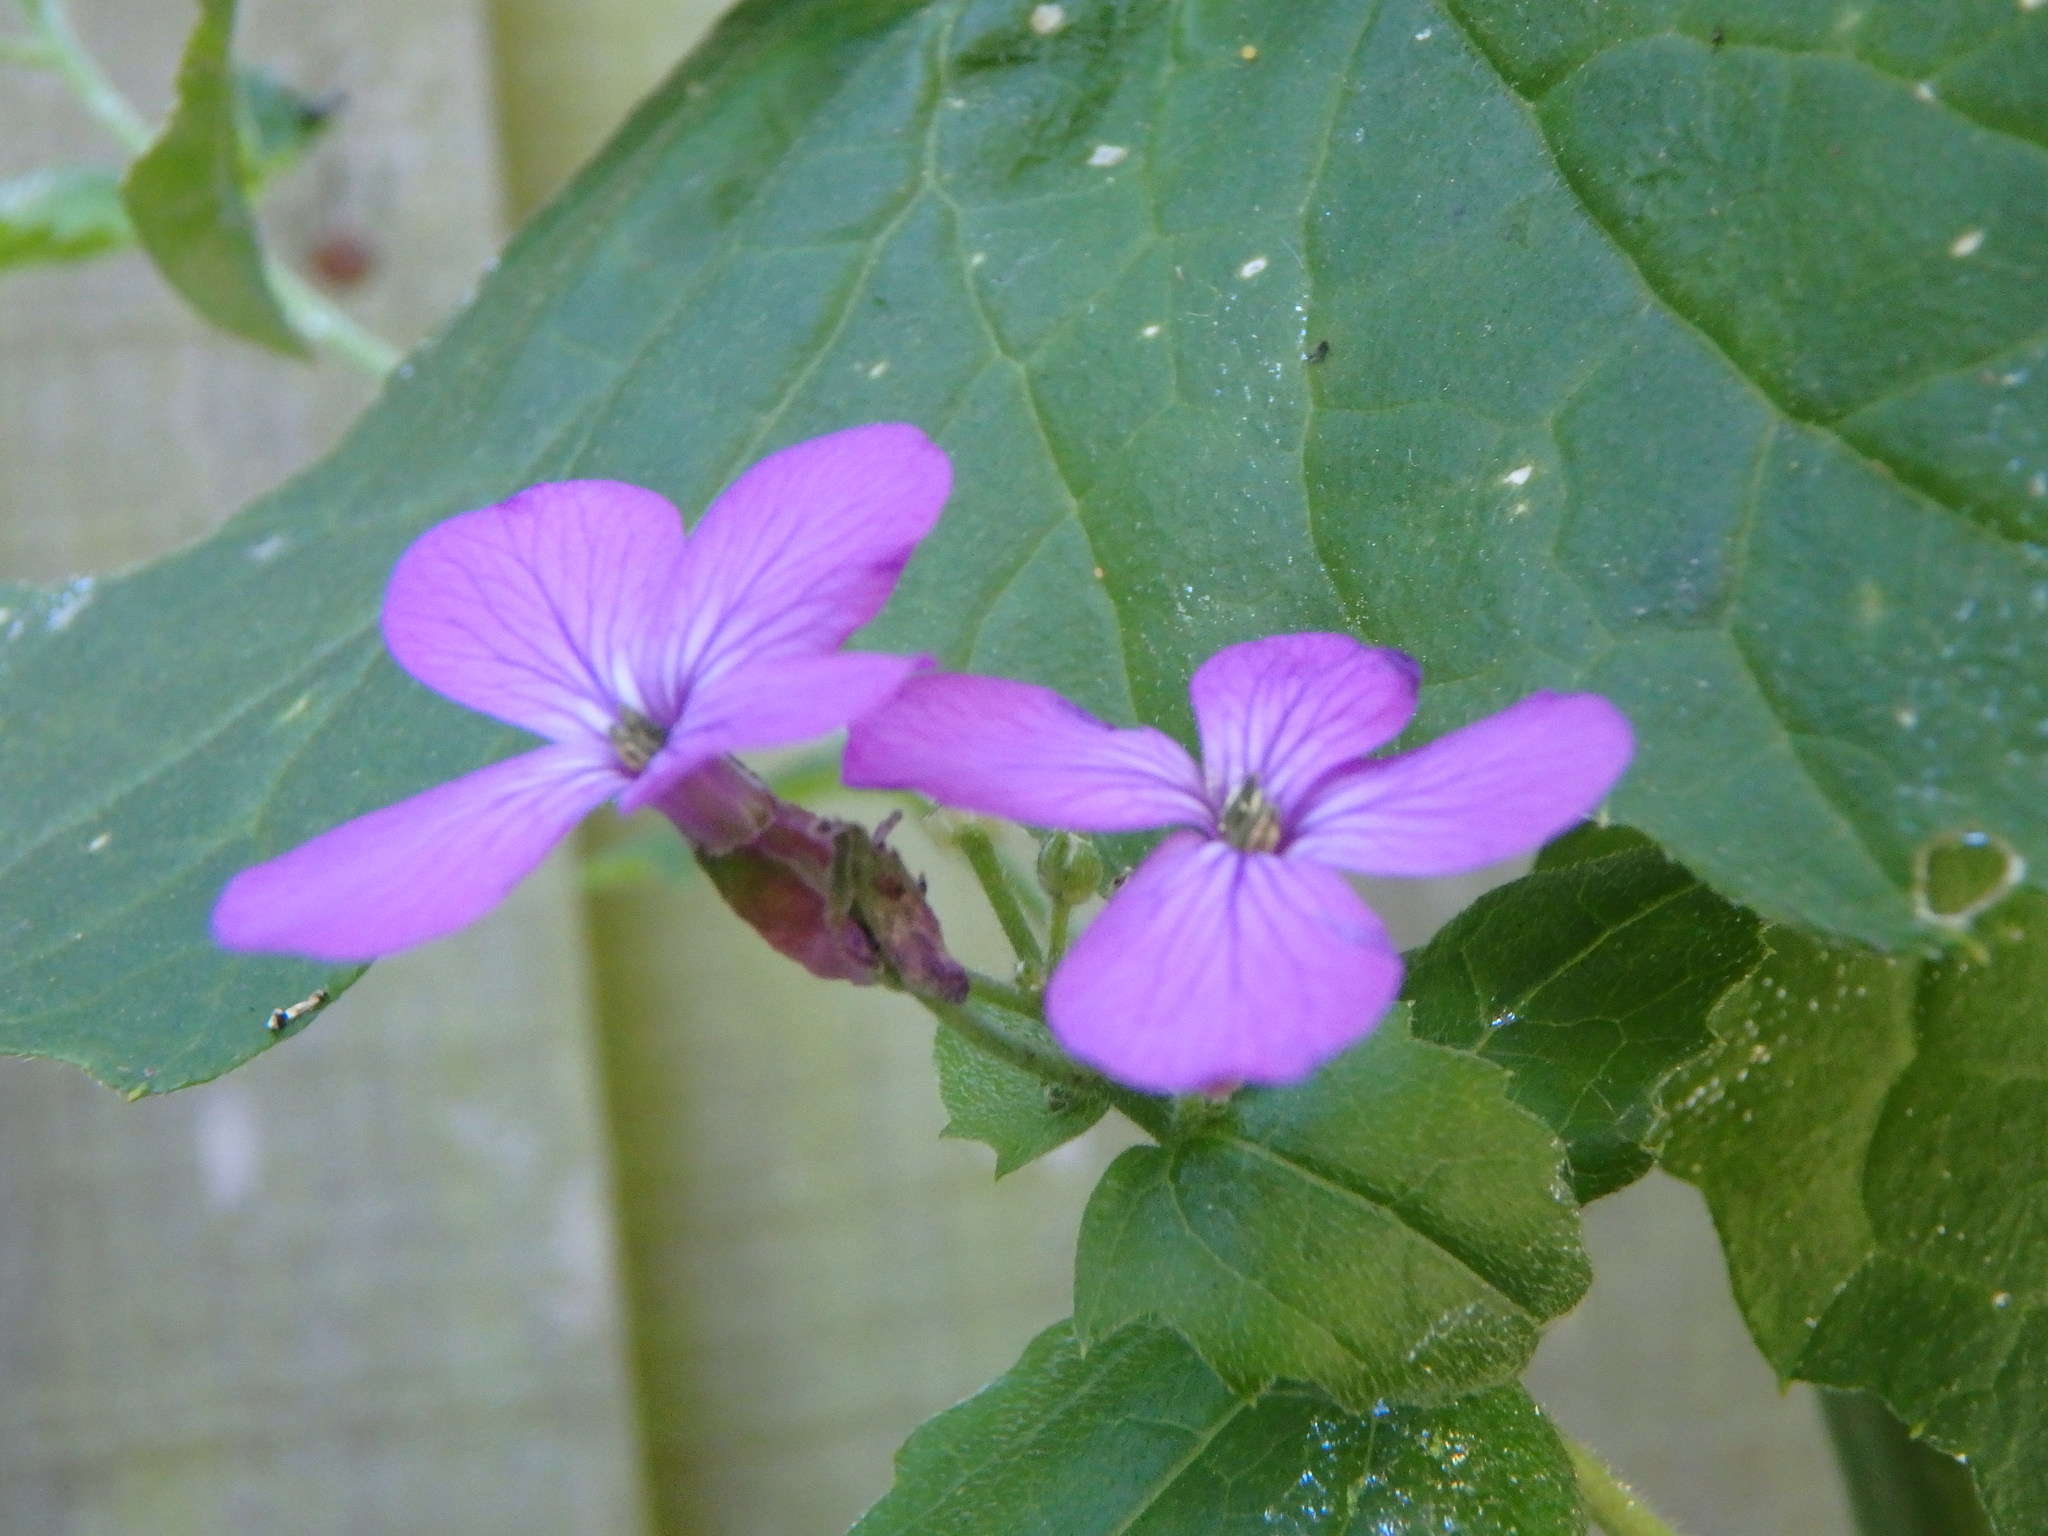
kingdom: Plantae
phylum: Tracheophyta
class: Magnoliopsida
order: Brassicales
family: Brassicaceae
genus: Lunaria
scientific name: Lunaria annua
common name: Honesty
